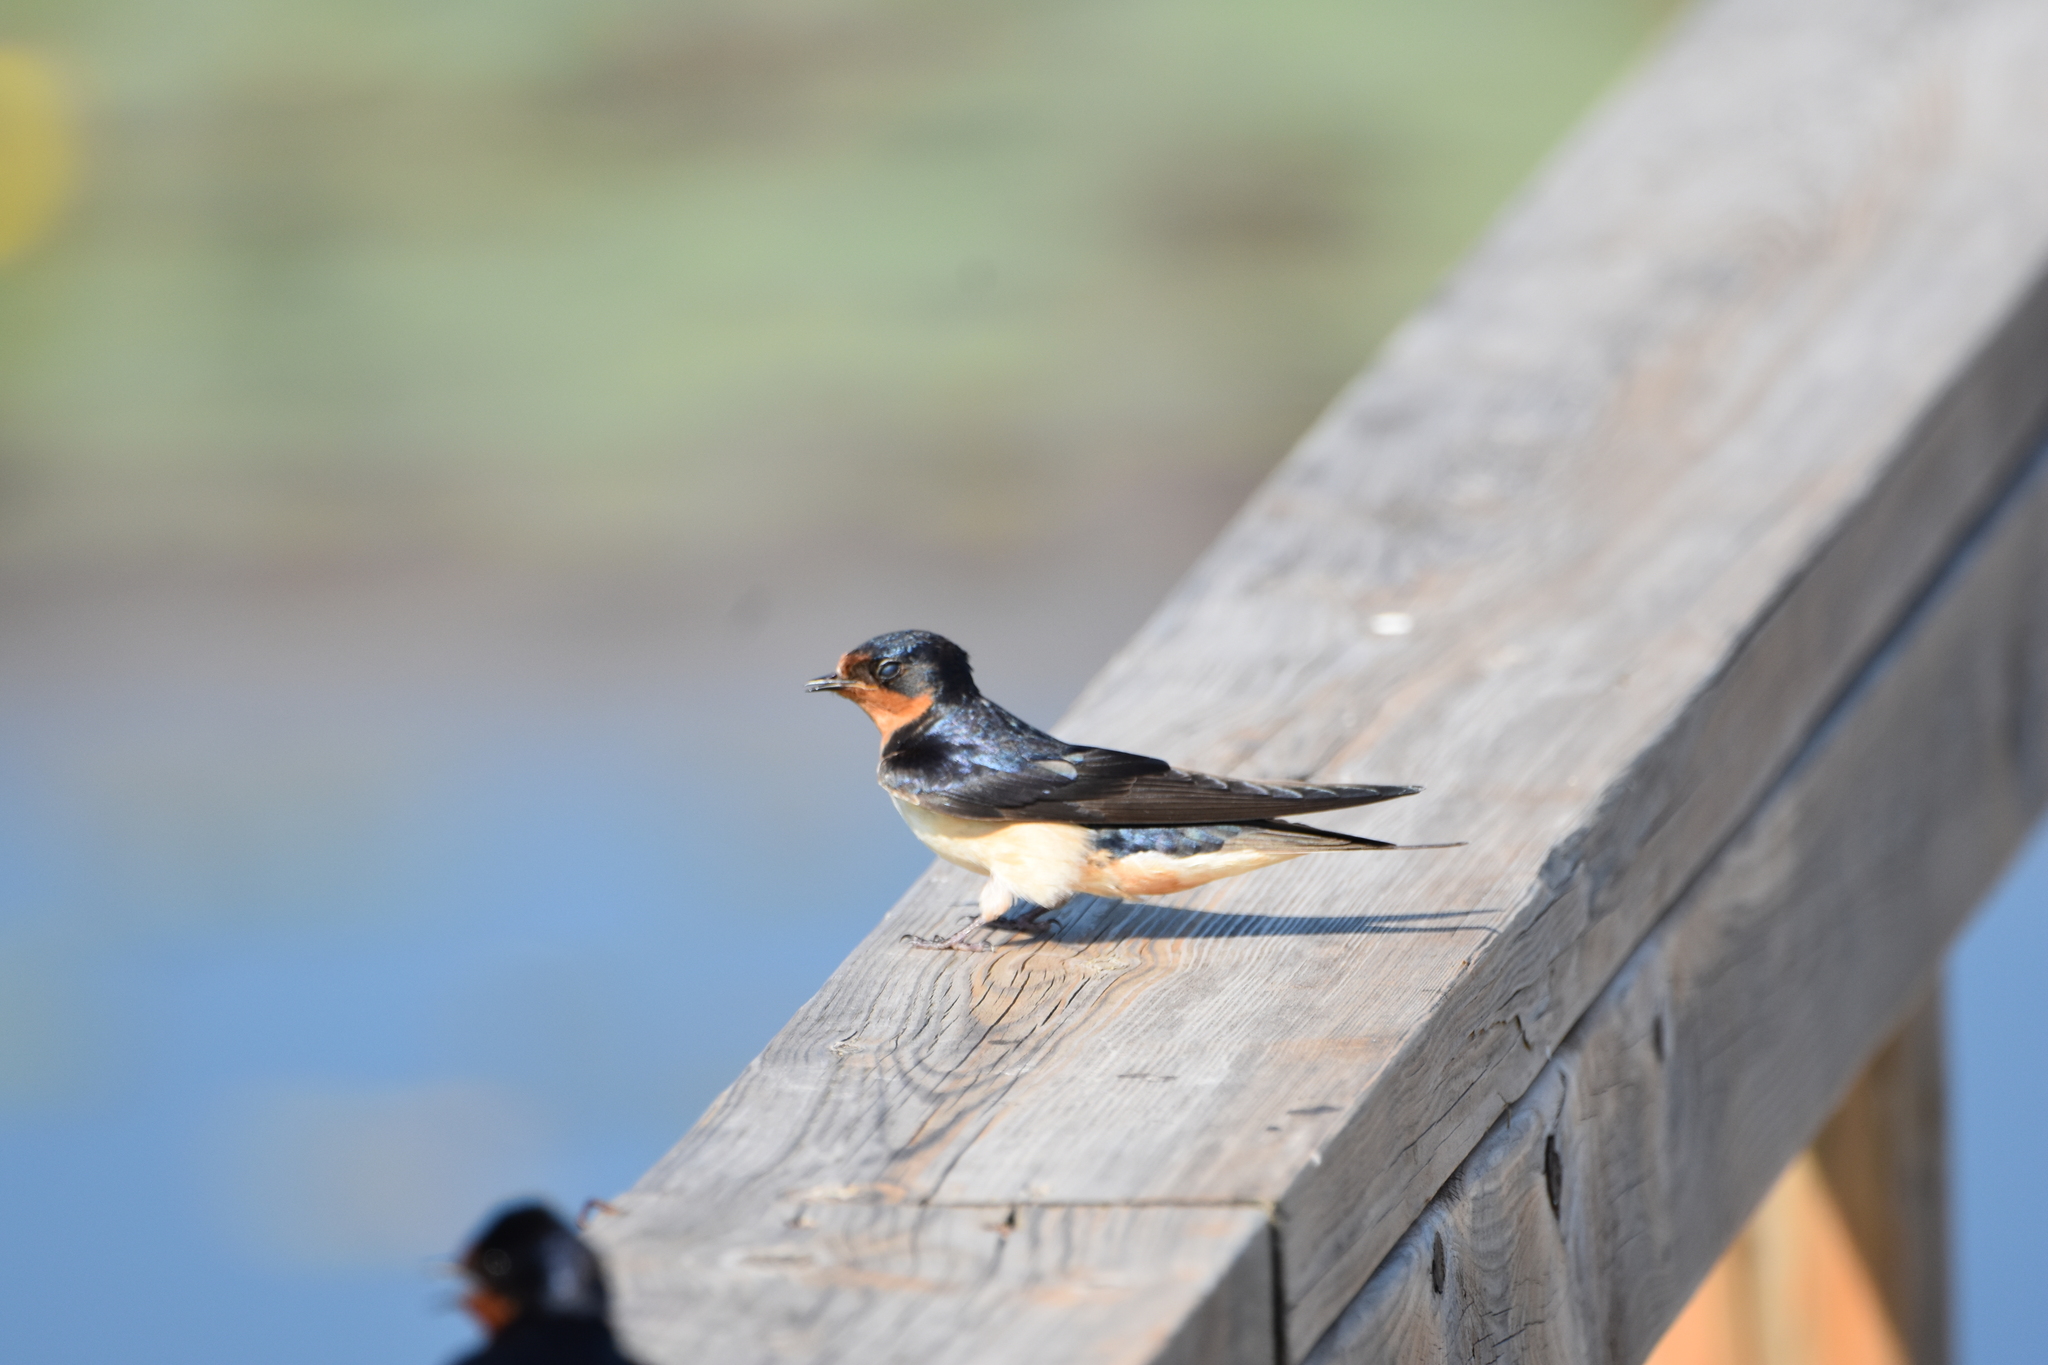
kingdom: Animalia
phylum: Chordata
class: Aves
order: Passeriformes
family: Hirundinidae
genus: Hirundo
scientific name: Hirundo rustica
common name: Barn swallow
